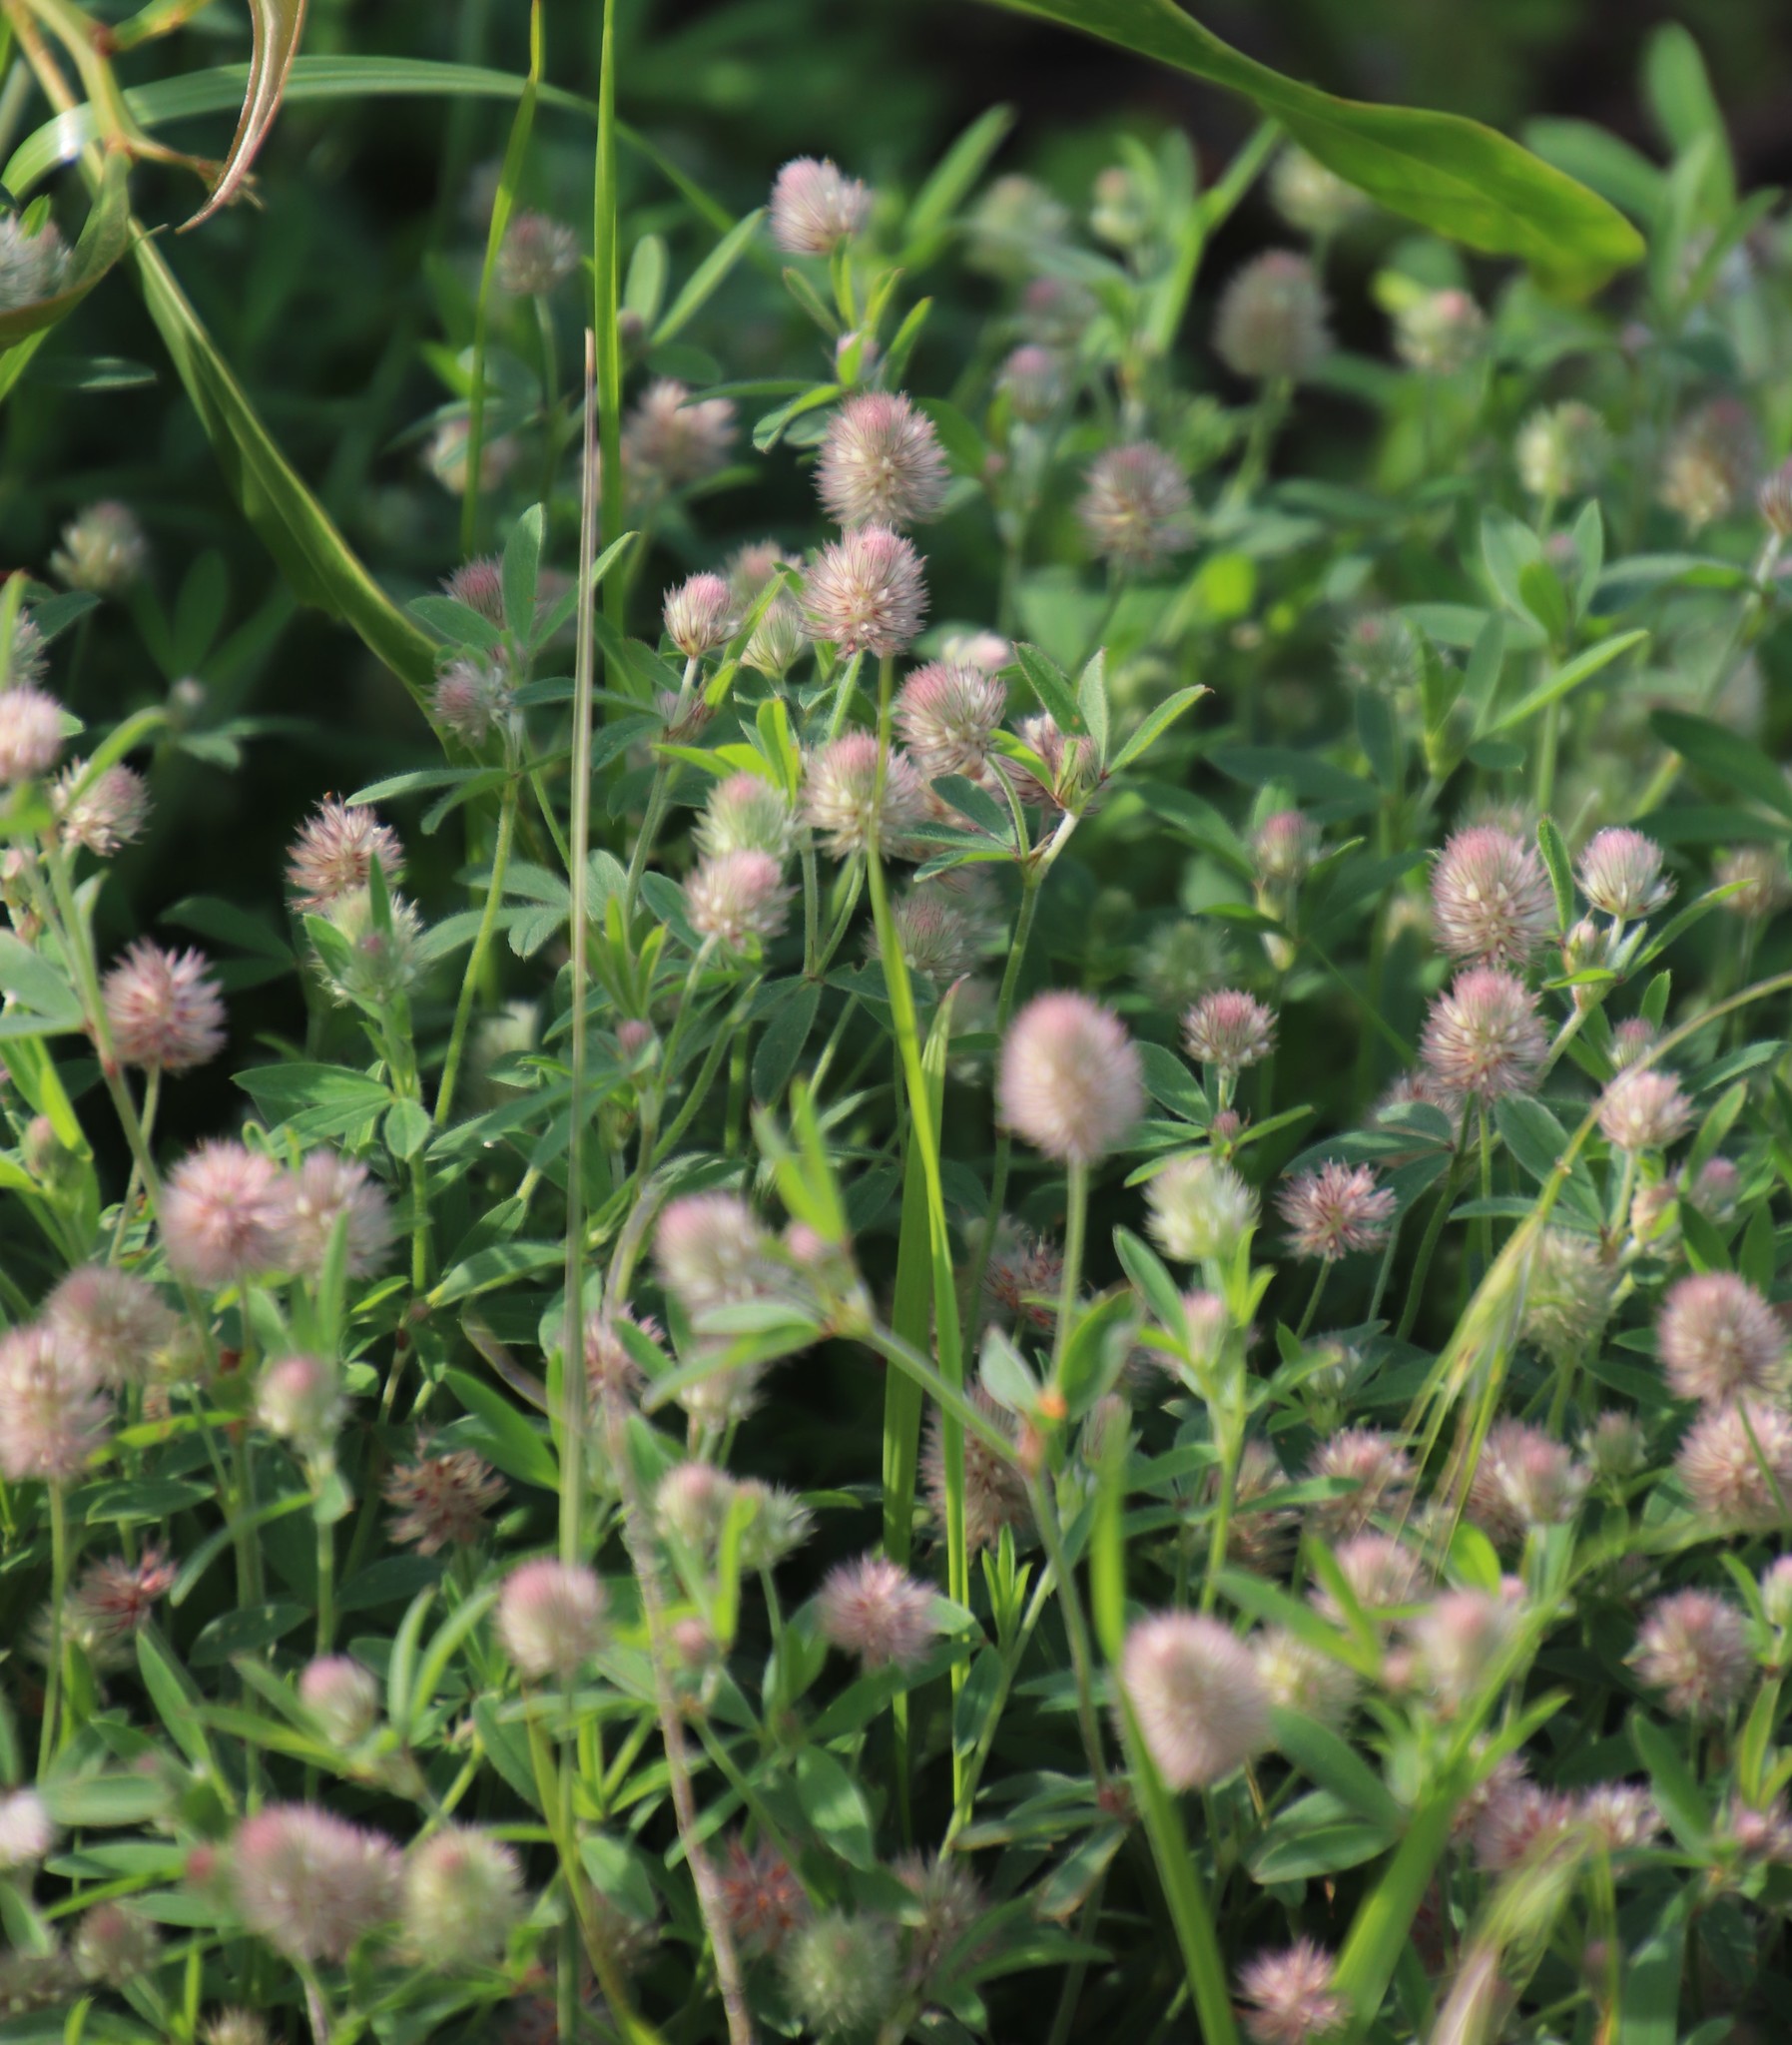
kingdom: Plantae
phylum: Tracheophyta
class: Magnoliopsida
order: Fabales
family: Fabaceae
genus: Trifolium
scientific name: Trifolium arvense
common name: Hare's-foot clover
